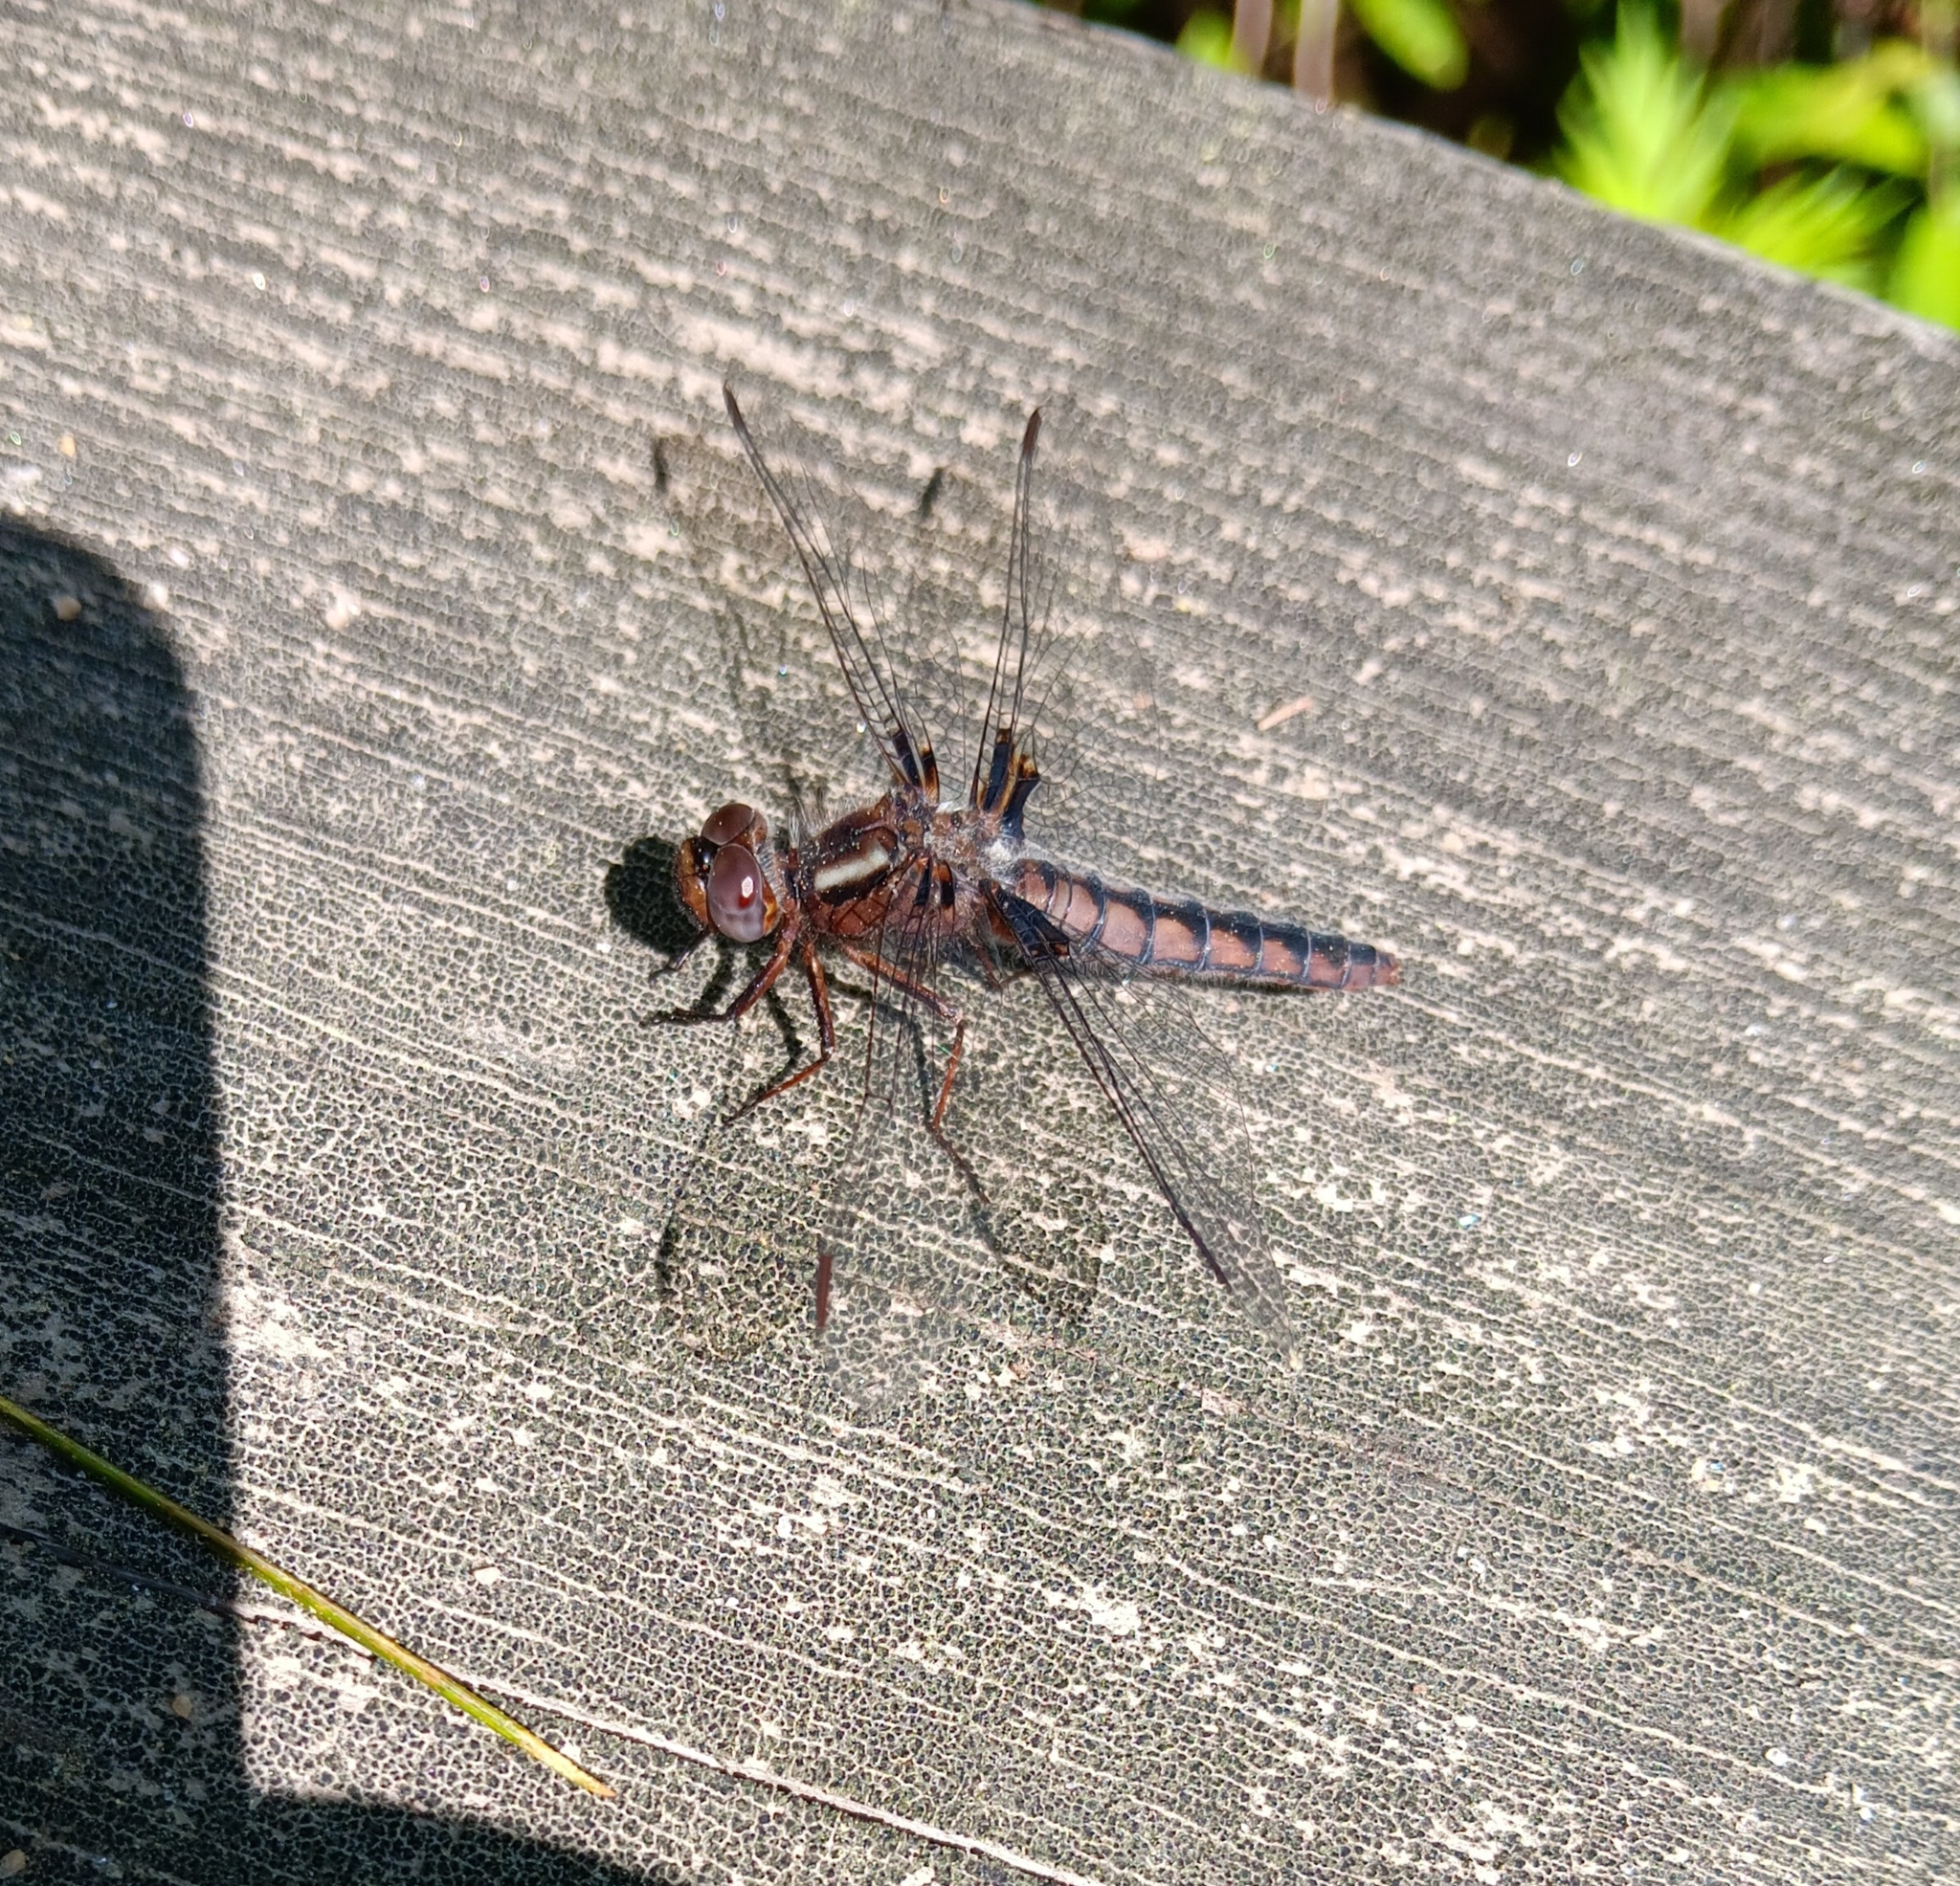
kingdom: Animalia
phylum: Arthropoda
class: Insecta
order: Odonata
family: Libellulidae
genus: Ladona
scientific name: Ladona deplanata
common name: Blue corporal
